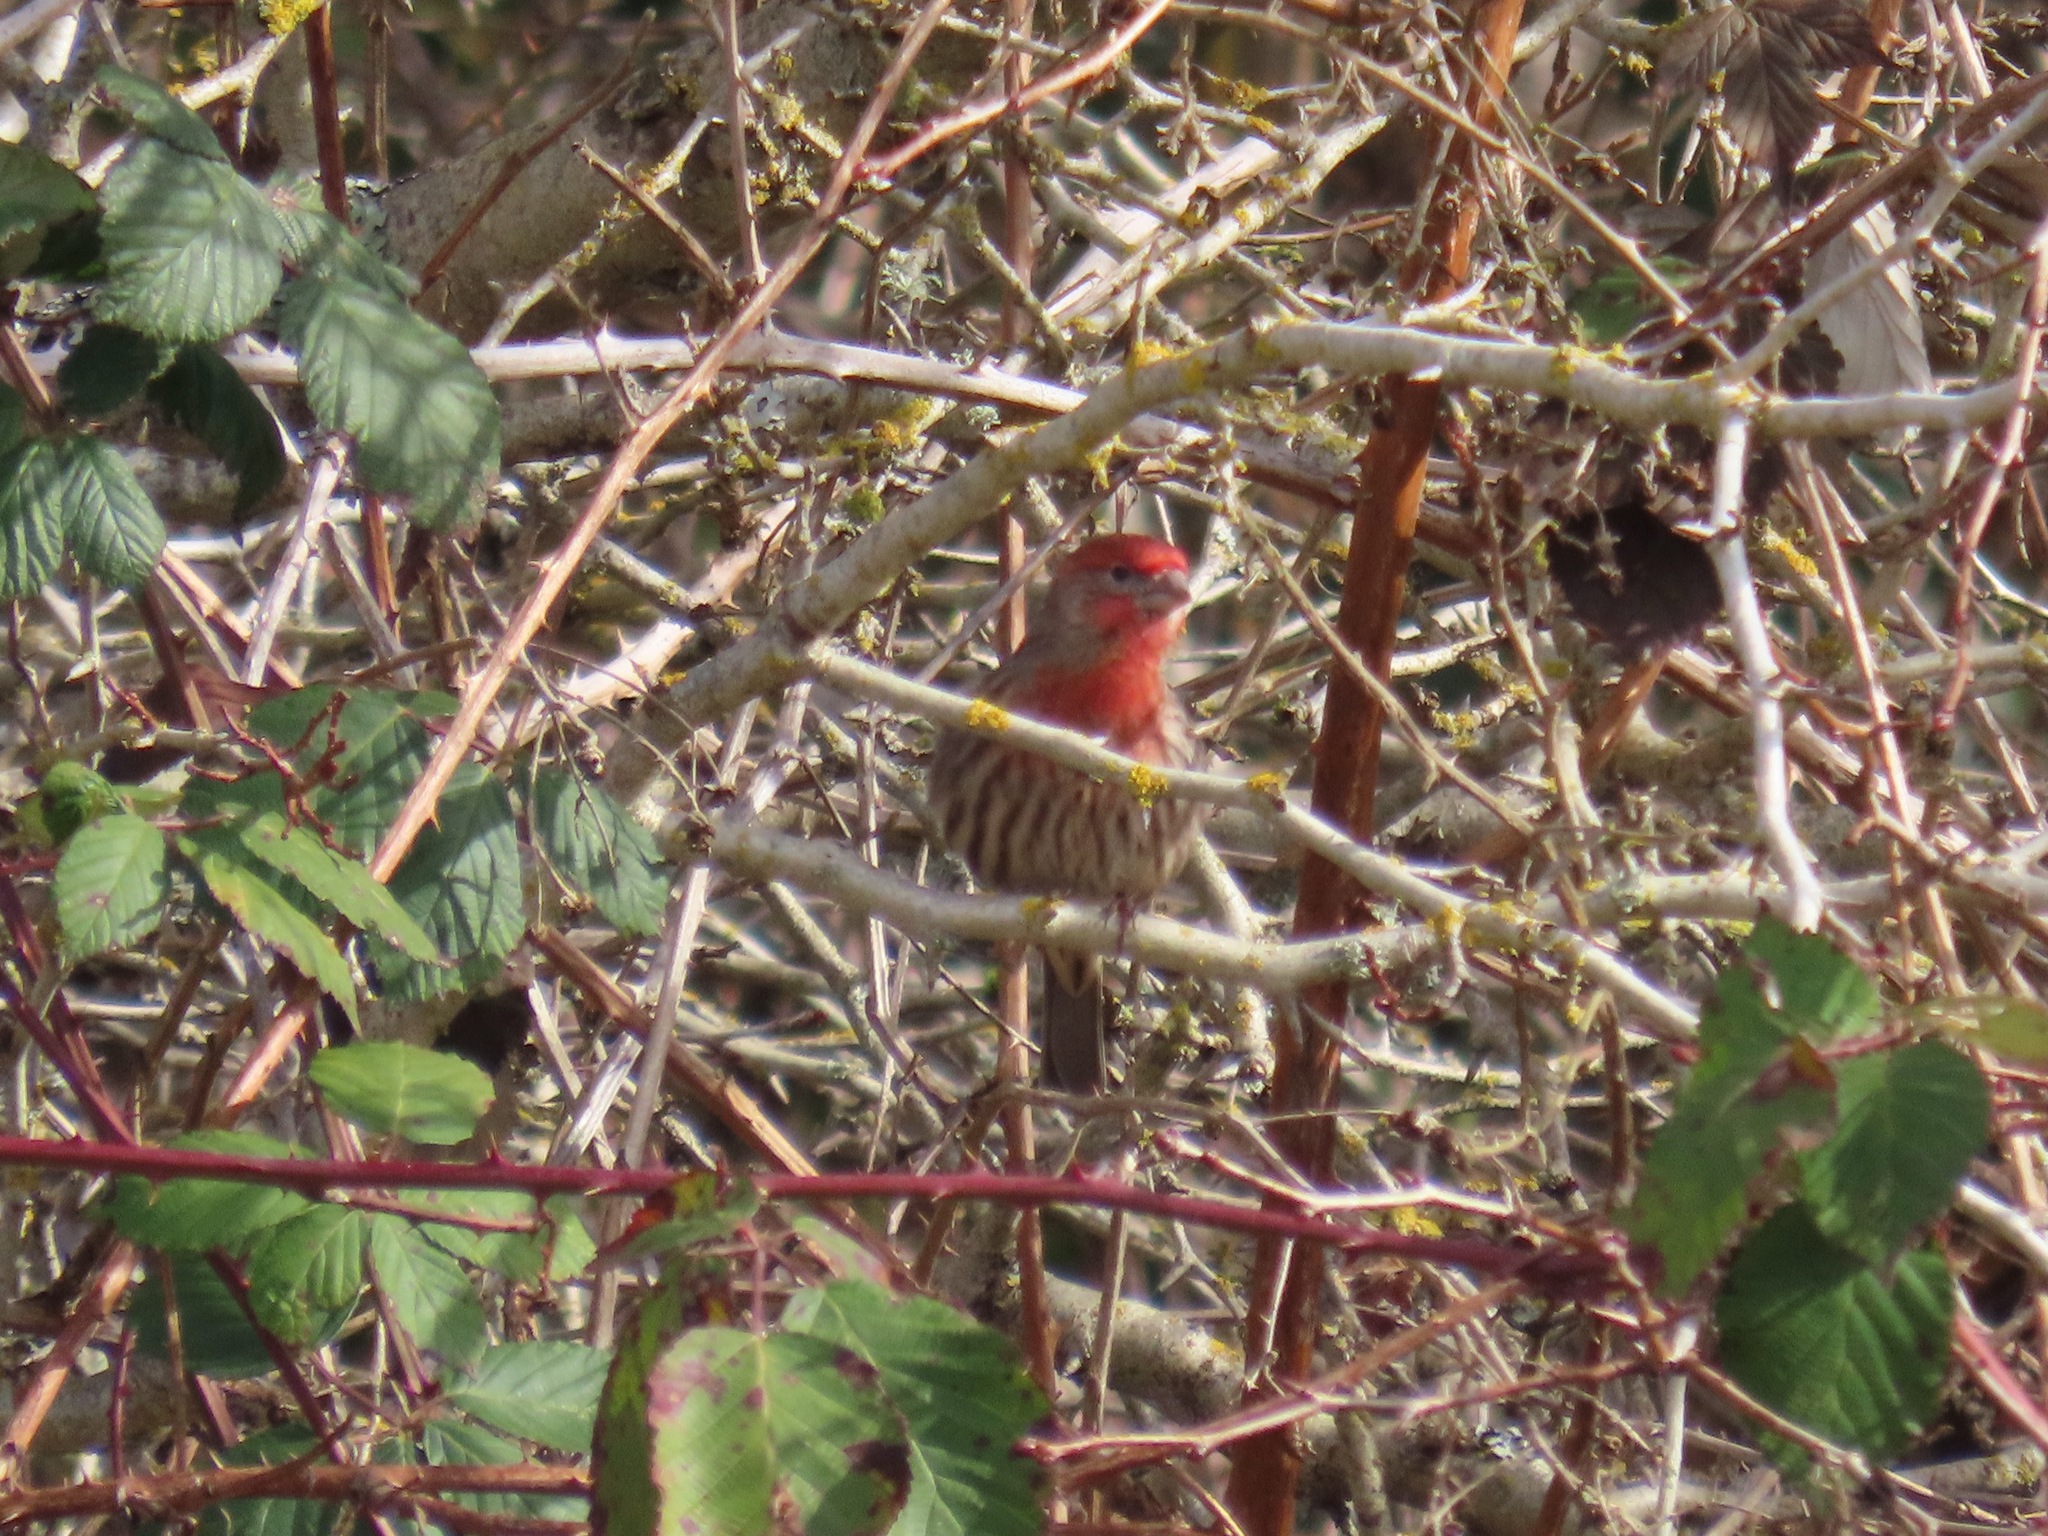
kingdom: Animalia
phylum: Chordata
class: Aves
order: Passeriformes
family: Fringillidae
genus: Haemorhous
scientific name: Haemorhous mexicanus
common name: House finch
